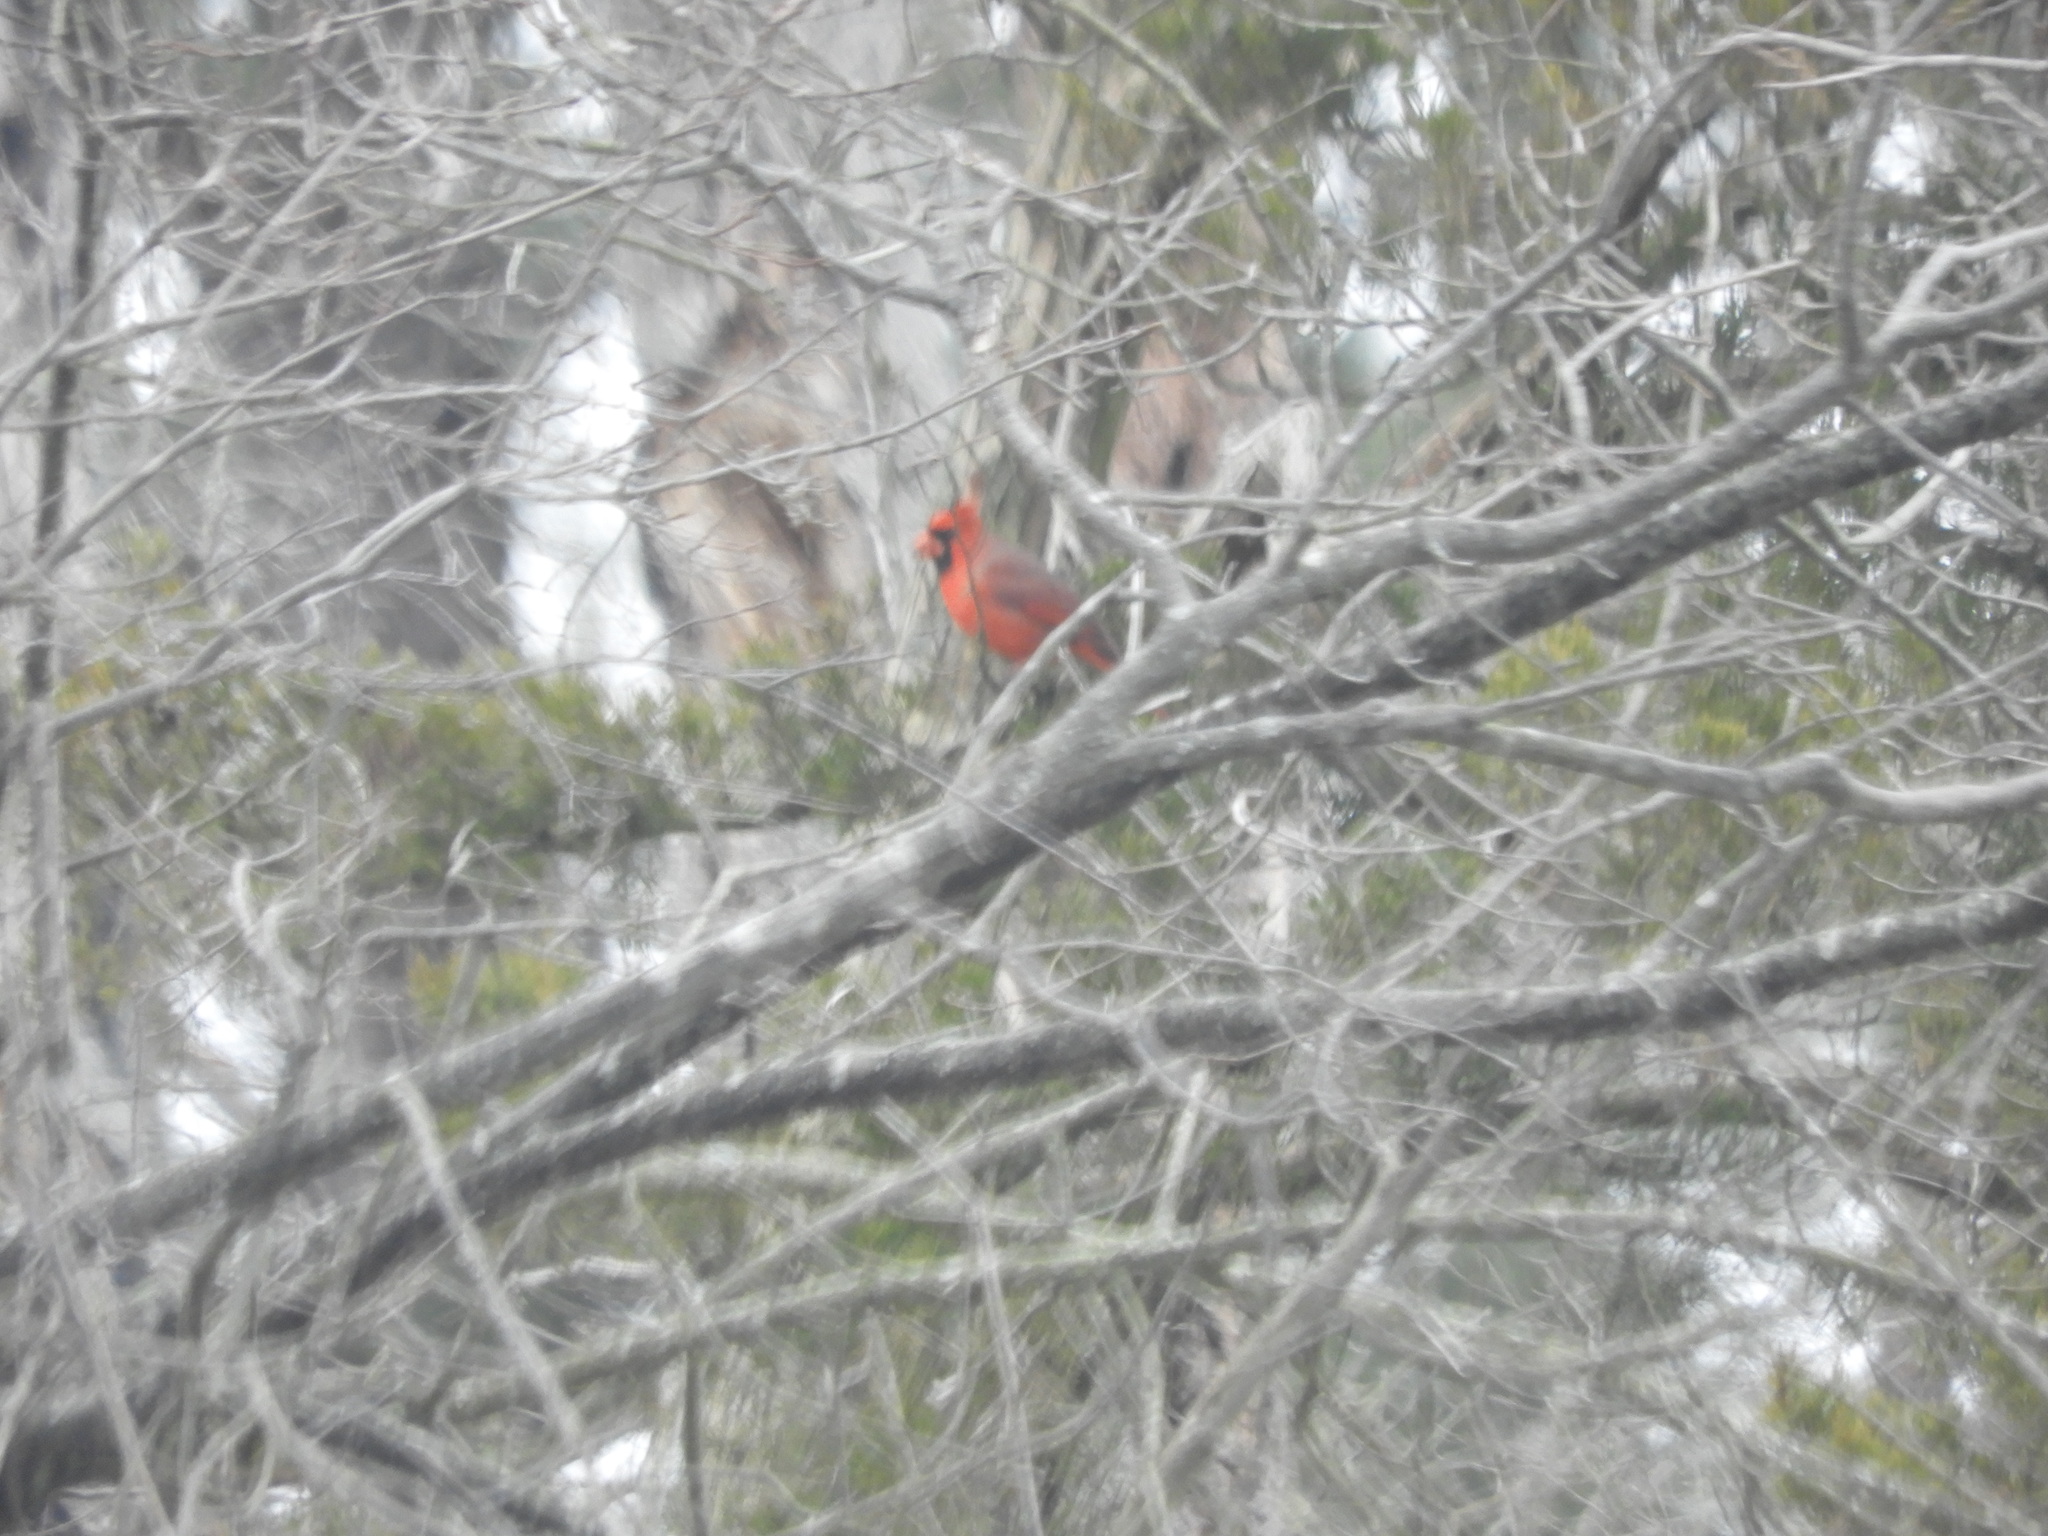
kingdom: Animalia
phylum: Chordata
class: Aves
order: Passeriformes
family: Cardinalidae
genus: Cardinalis
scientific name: Cardinalis cardinalis
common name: Northern cardinal
